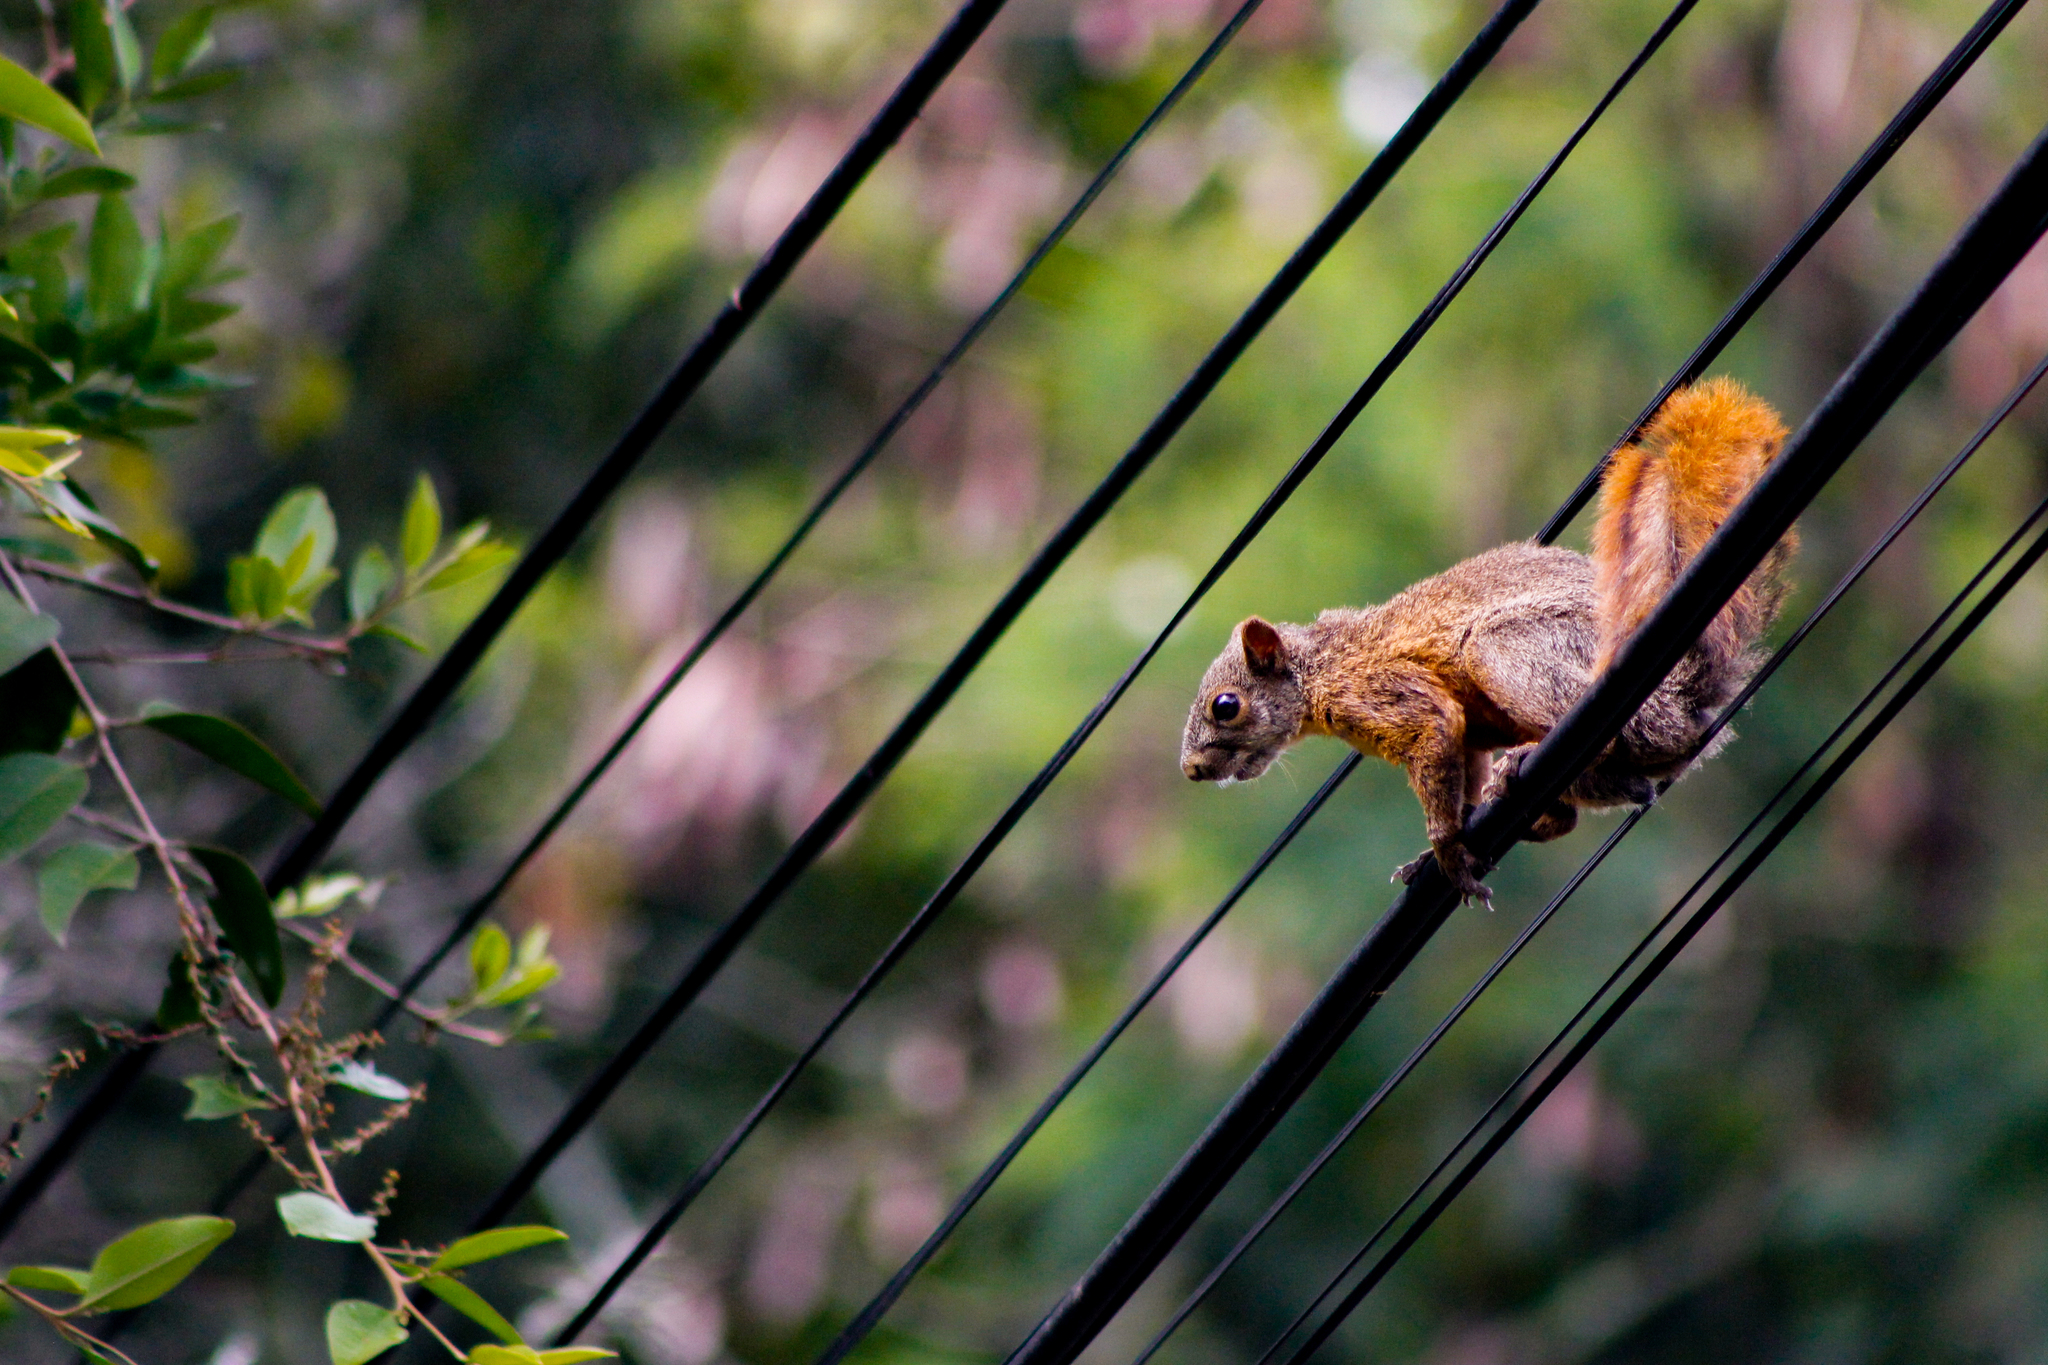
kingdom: Animalia
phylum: Chordata
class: Mammalia
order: Rodentia
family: Sciuridae
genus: Sciurus
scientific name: Sciurus granatensis
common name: Red-tailed squirrel
